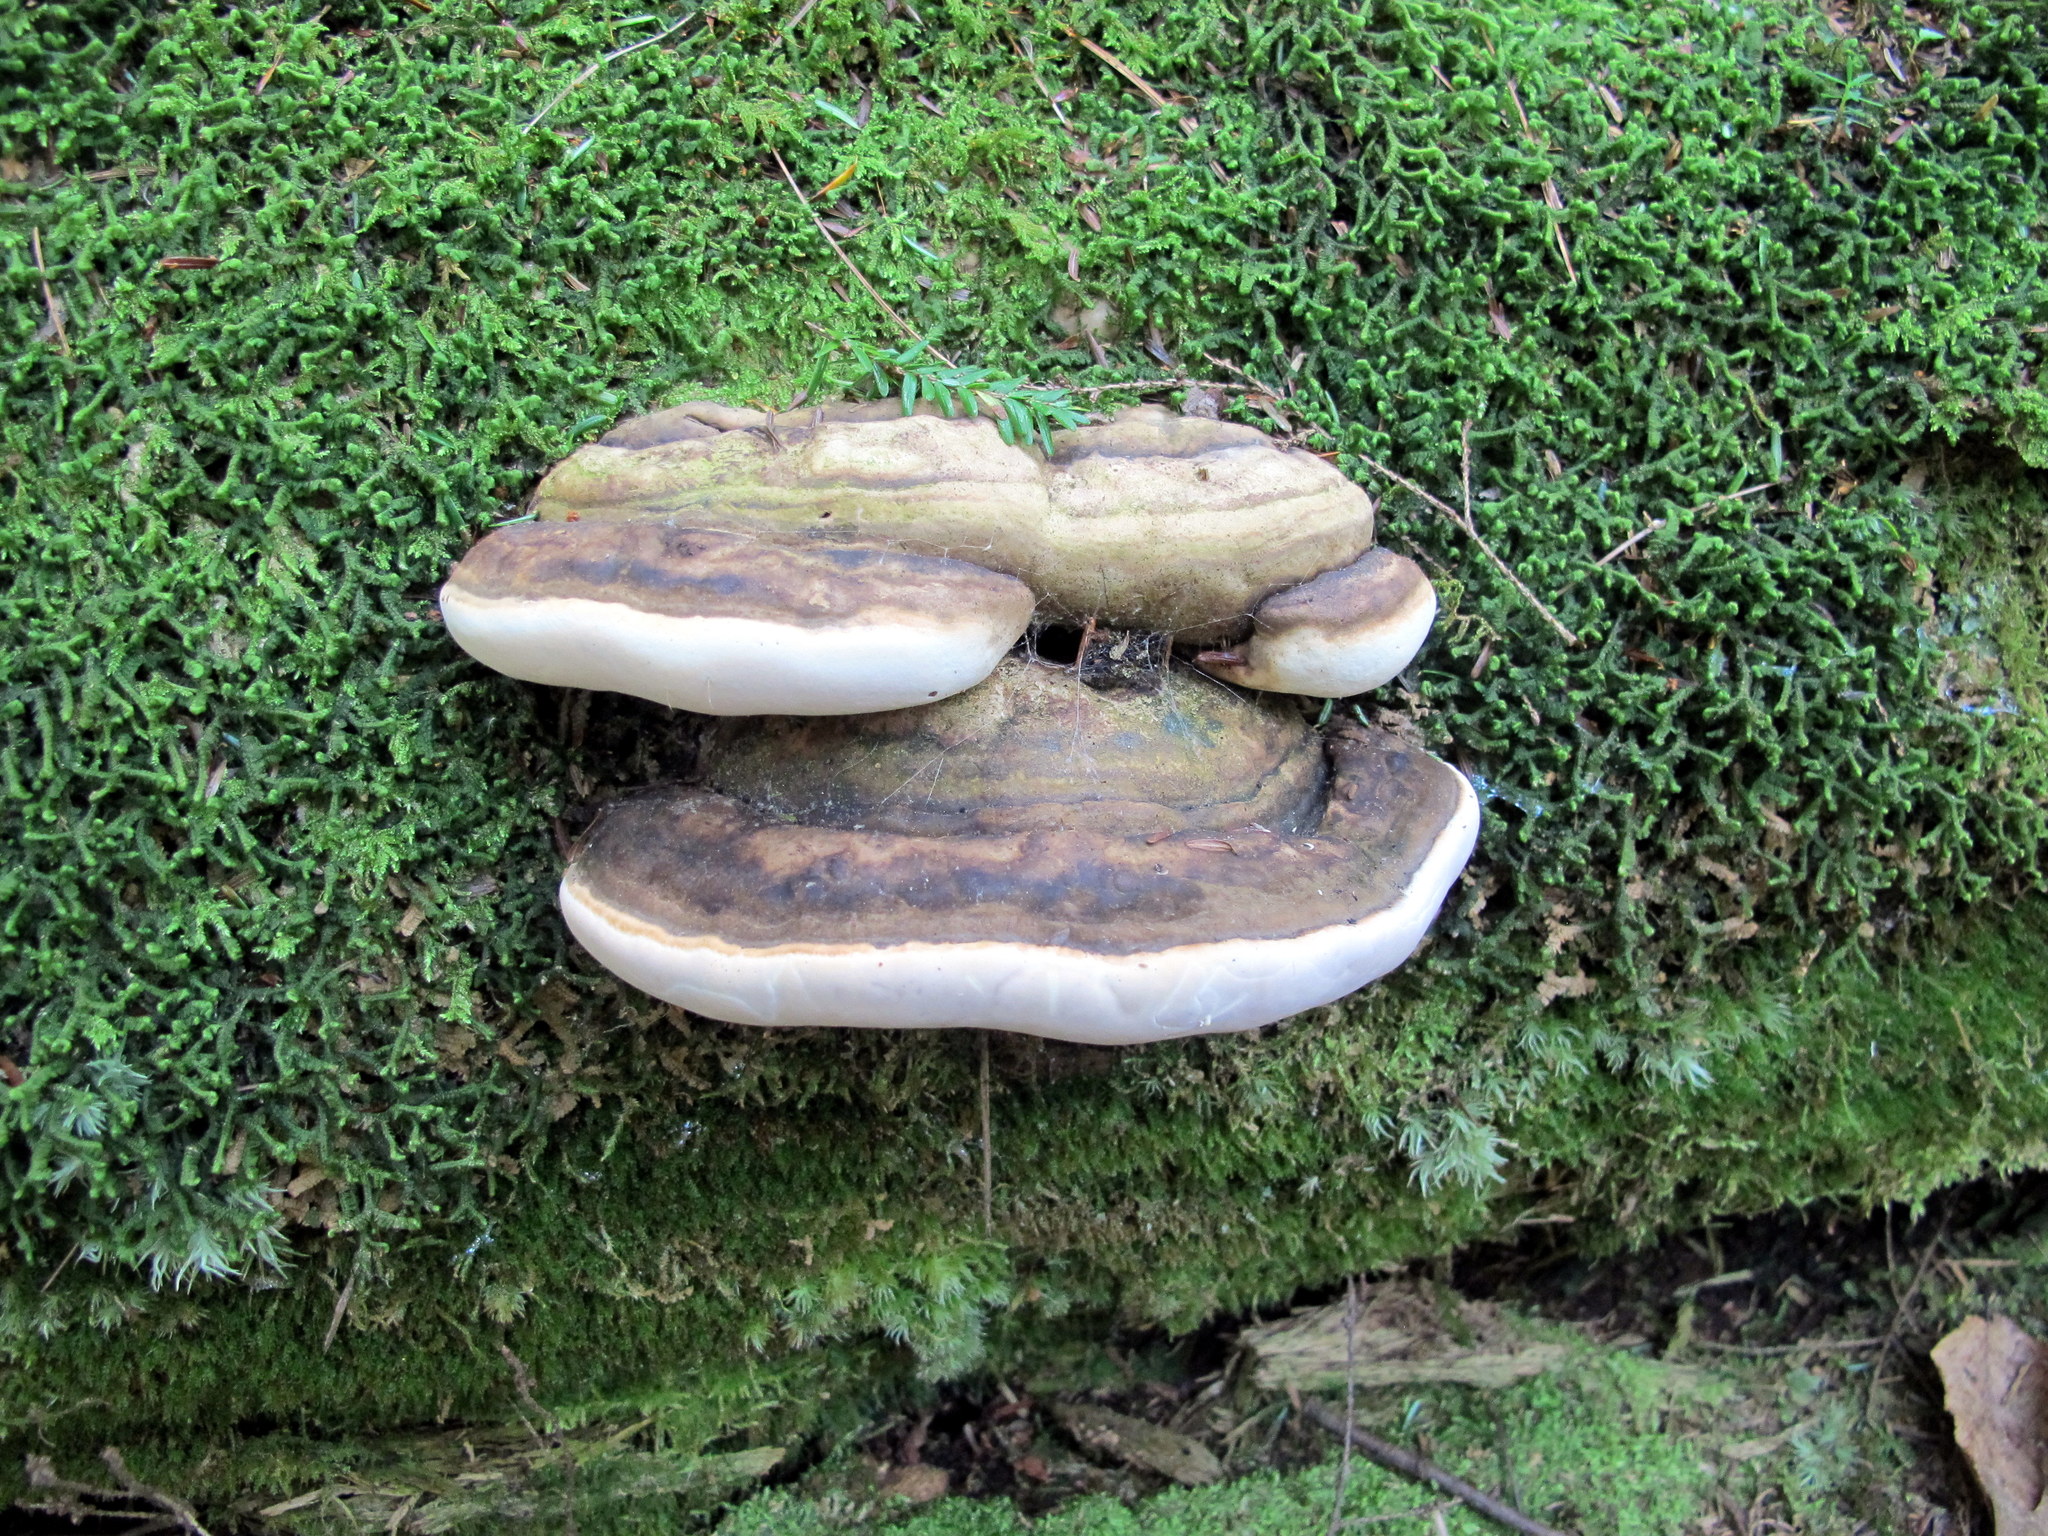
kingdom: Fungi
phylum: Basidiomycota
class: Agaricomycetes
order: Polyporales
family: Fomitopsidaceae
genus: Fomitopsis
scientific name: Fomitopsis ochracea
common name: American brown fomitopsis
